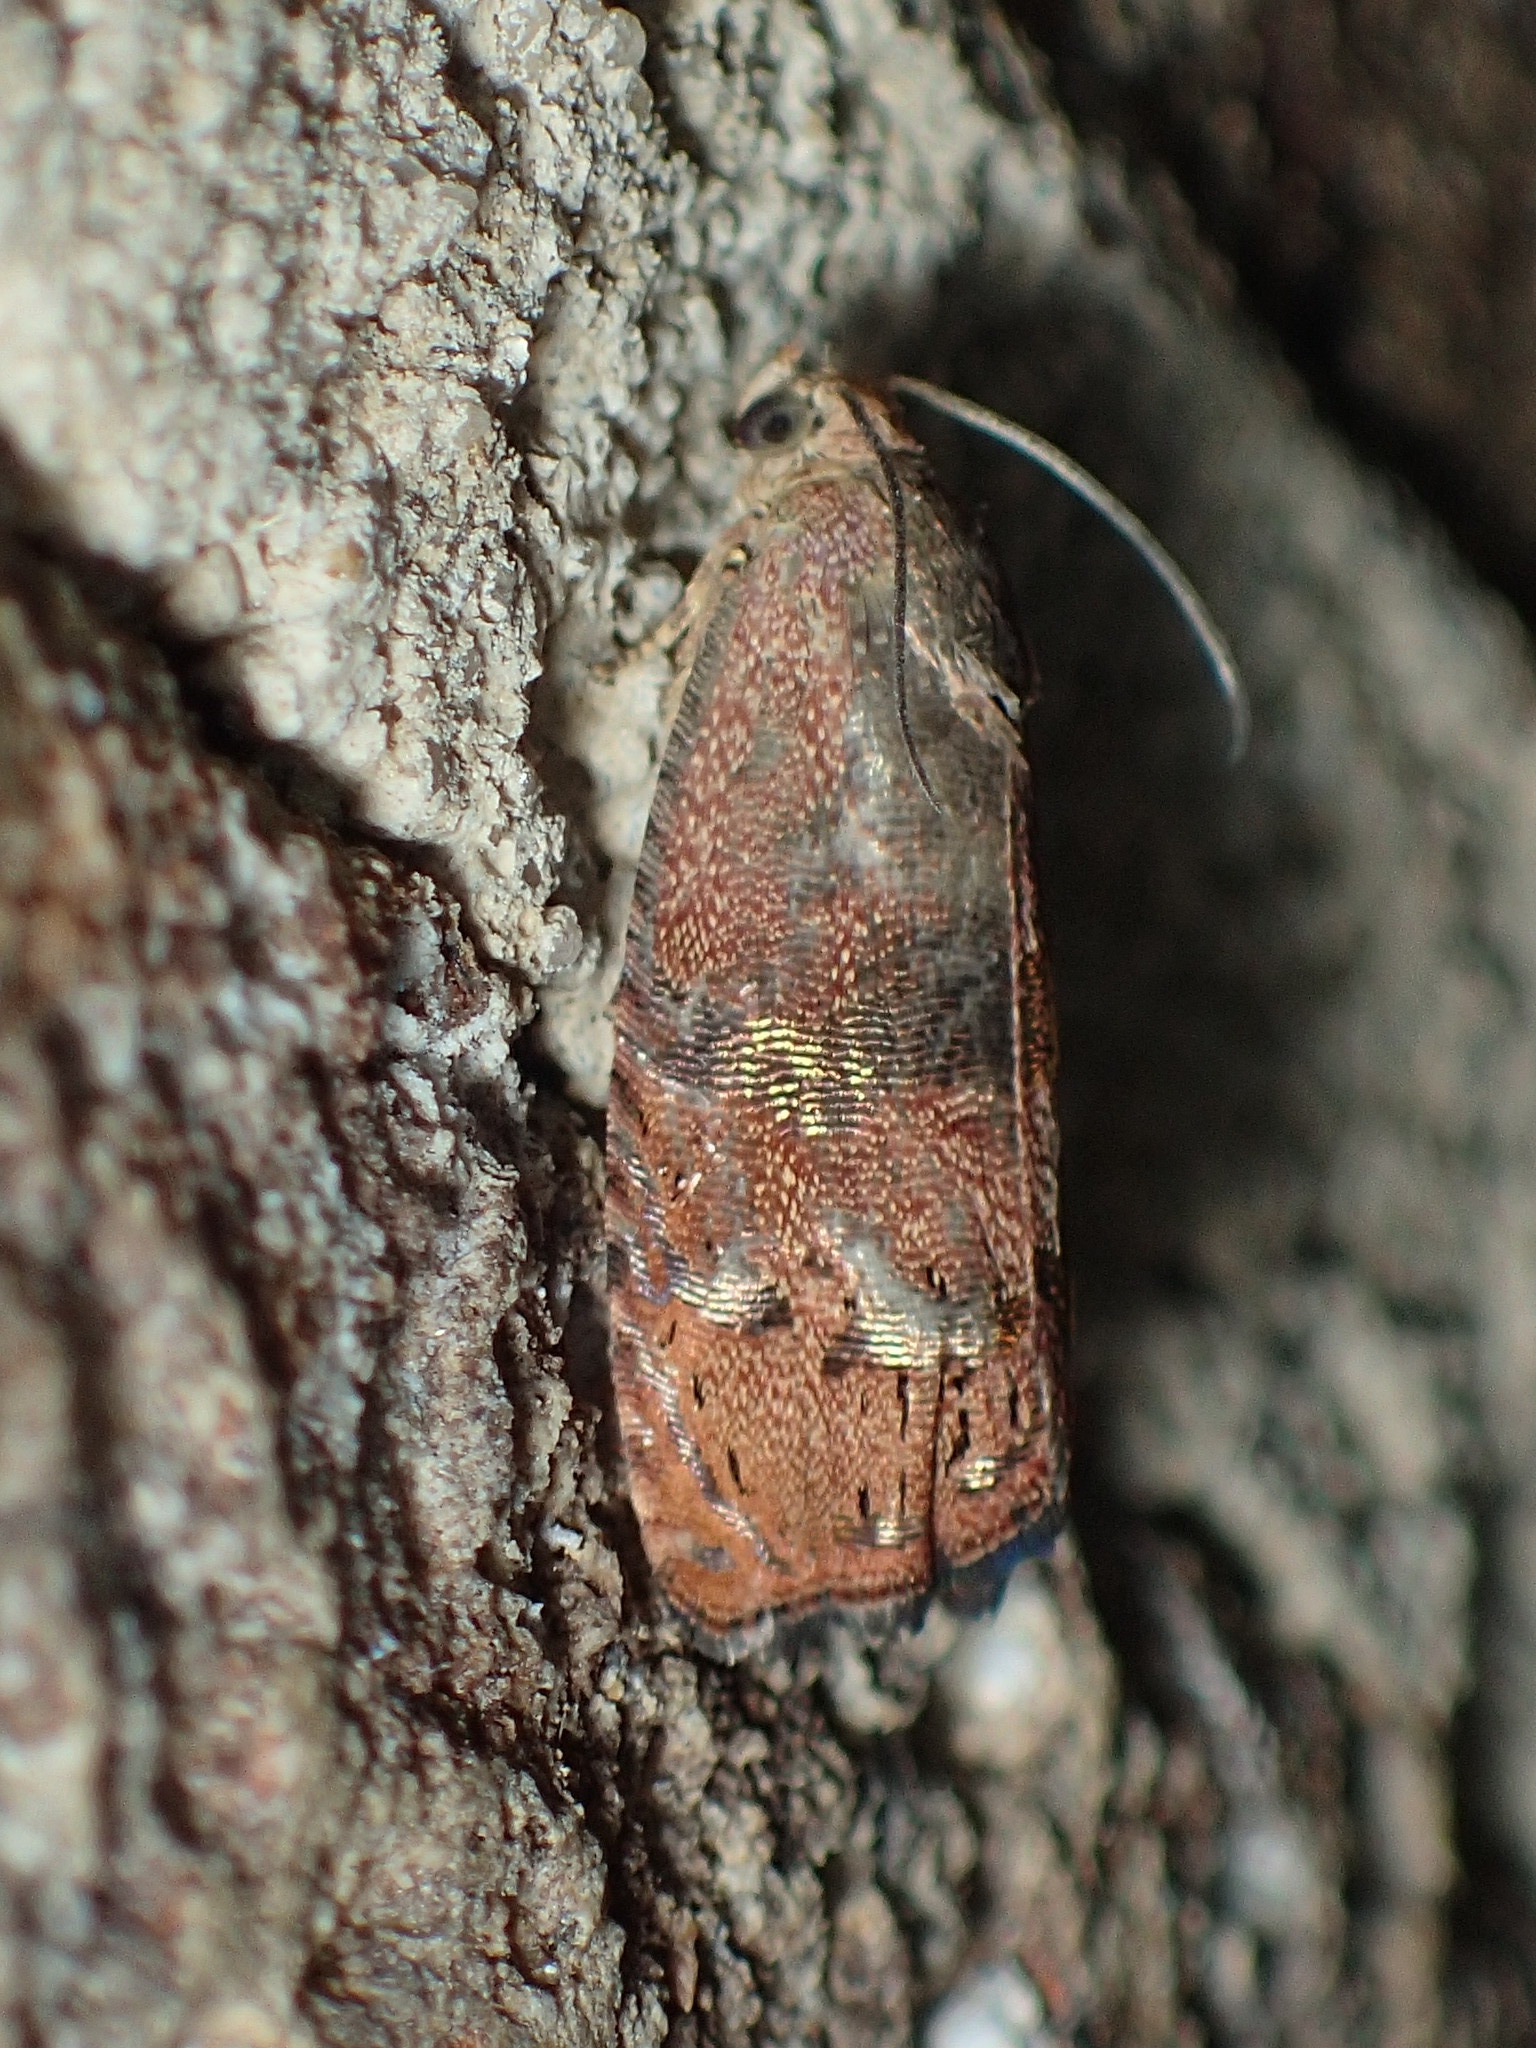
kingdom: Animalia
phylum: Arthropoda
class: Insecta
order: Lepidoptera
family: Tortricidae
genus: Cydia
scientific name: Cydia latiferreana
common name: Filbertworm moth
